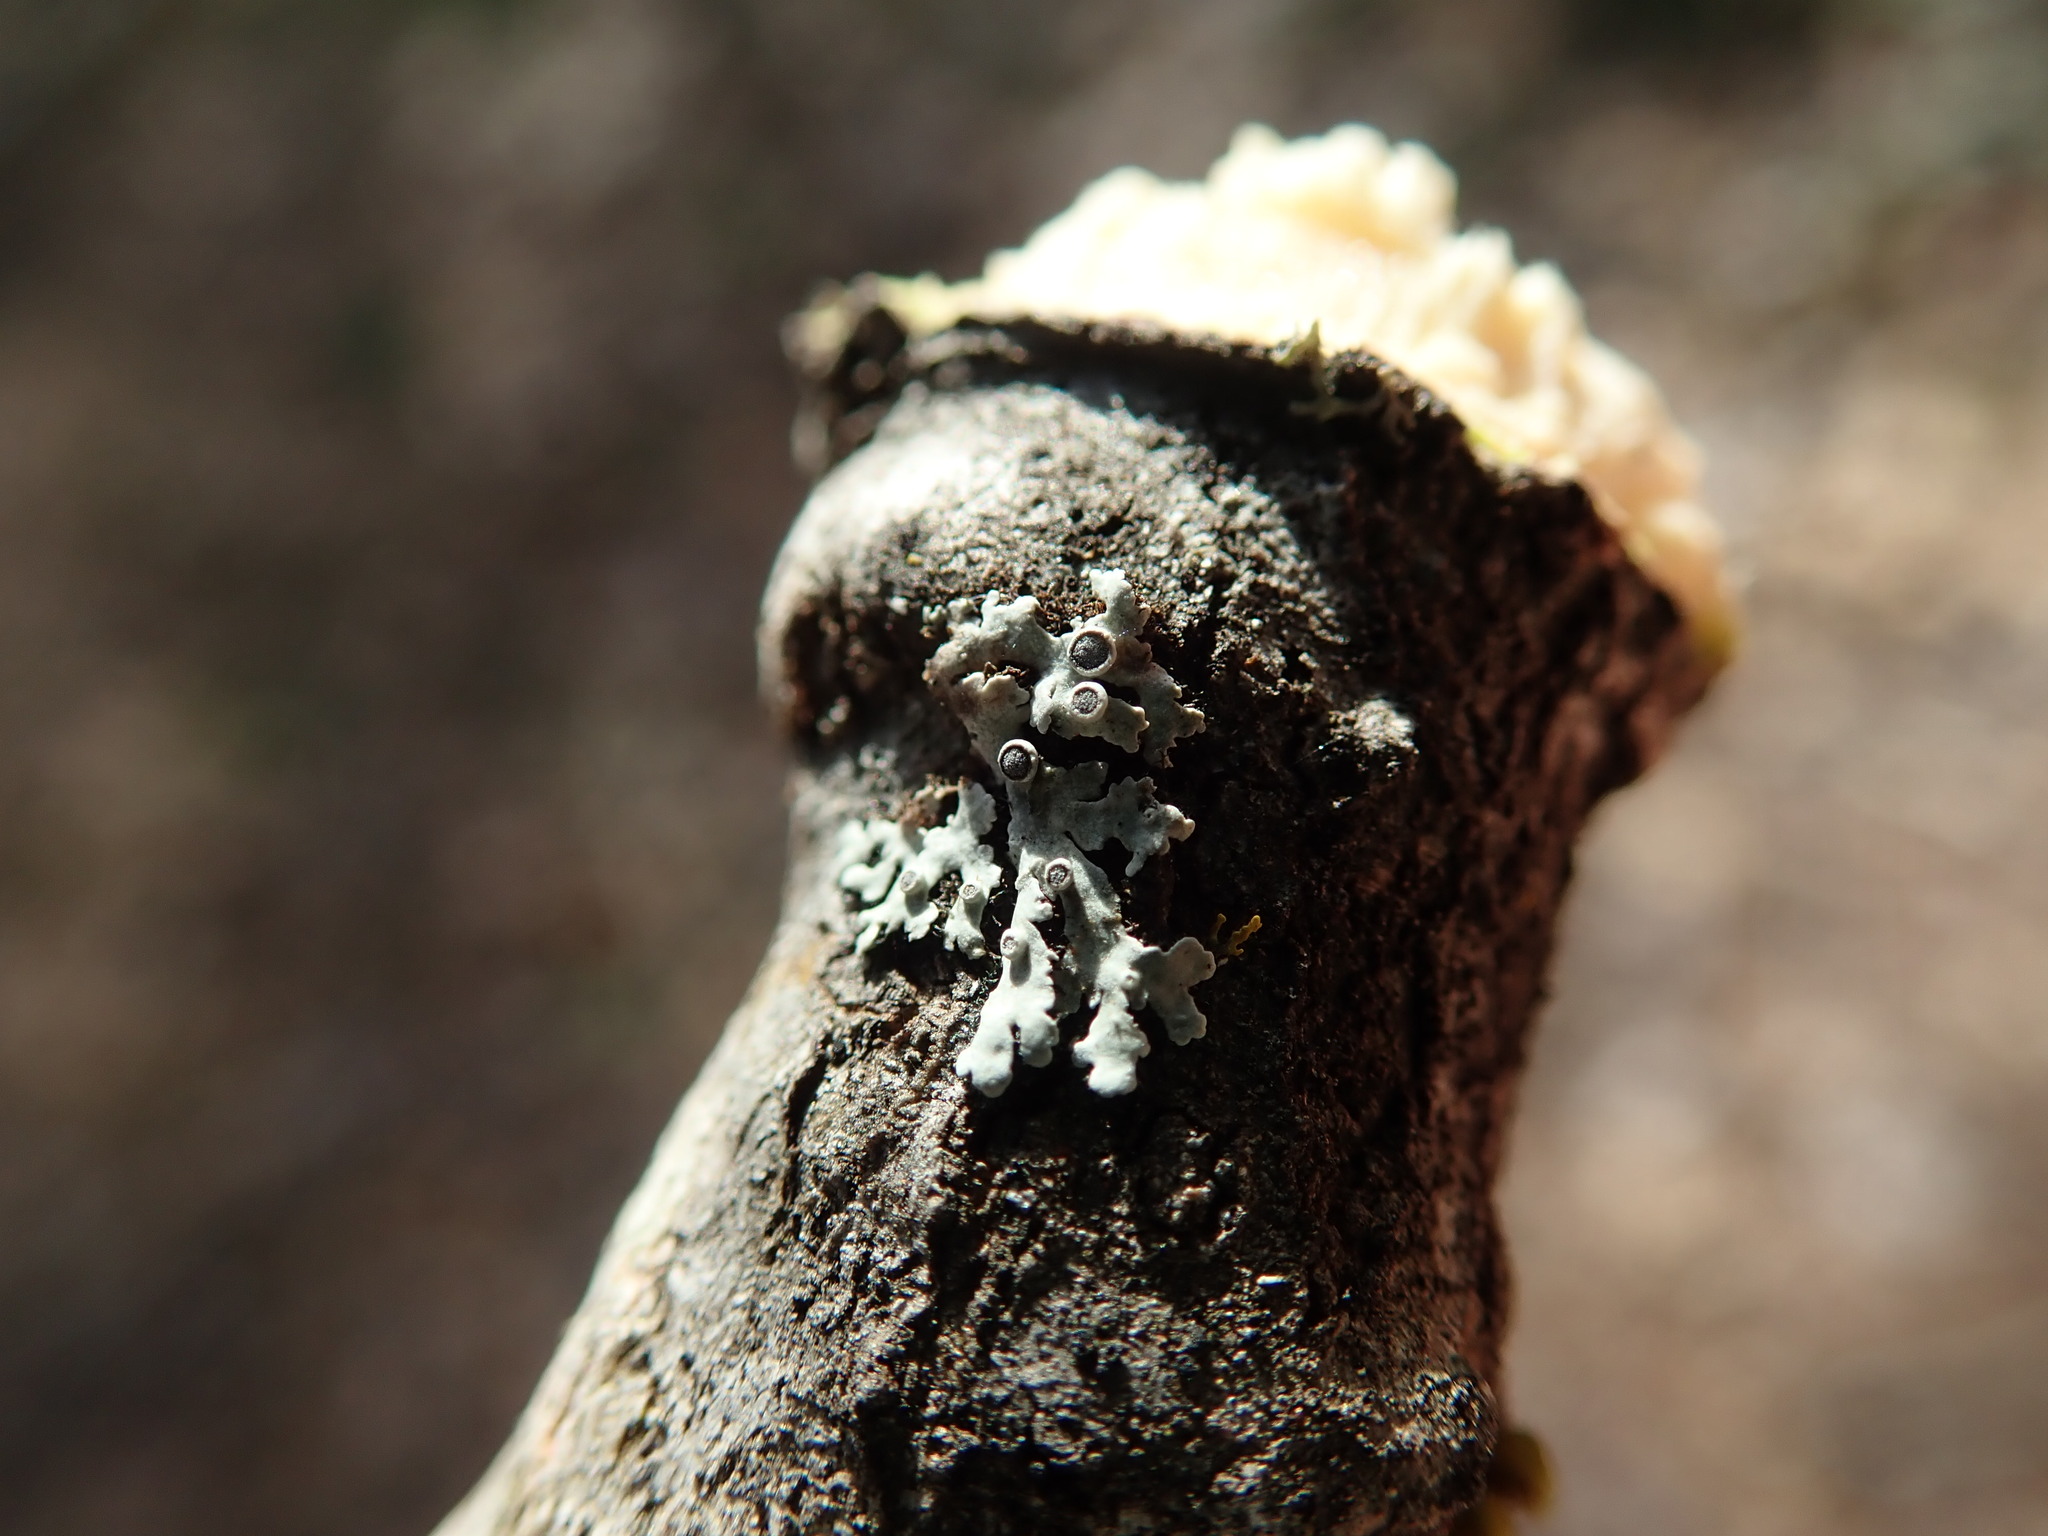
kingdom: Fungi
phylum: Ascomycota
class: Lecanoromycetes
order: Caliciales
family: Physciaceae
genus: Physcia
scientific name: Physcia aipolia
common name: Hoary rosette lichen
